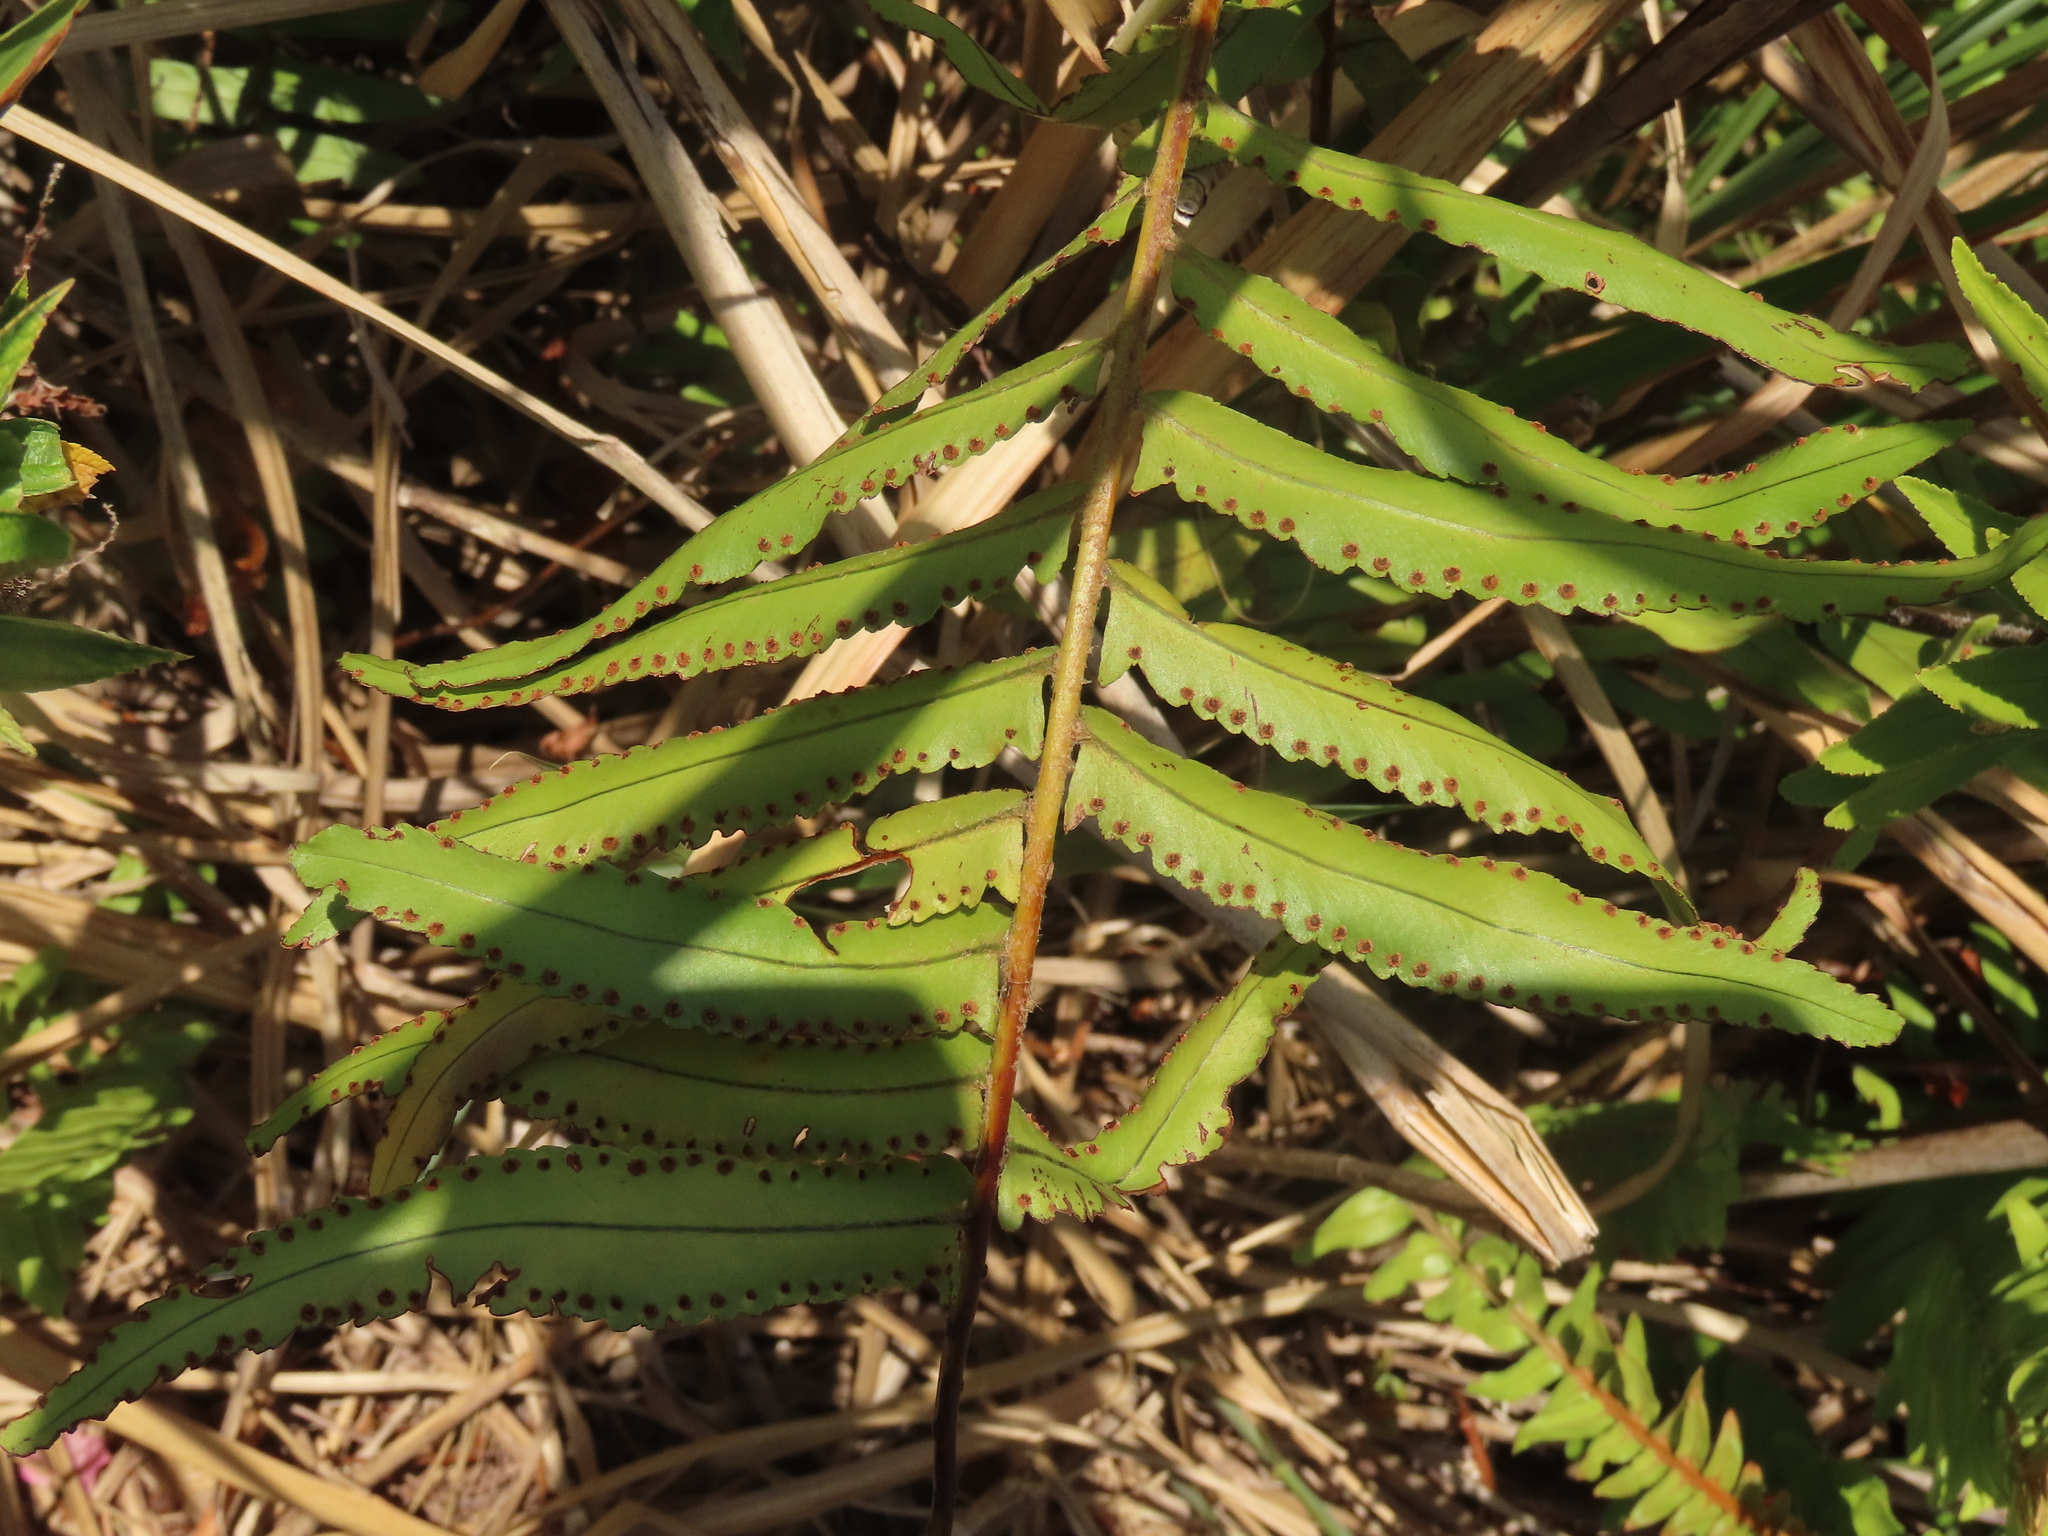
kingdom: Plantae
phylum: Tracheophyta
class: Polypodiopsida
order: Polypodiales
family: Nephrolepidaceae
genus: Nephrolepis
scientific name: Nephrolepis brownii
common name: Asian swordfern
